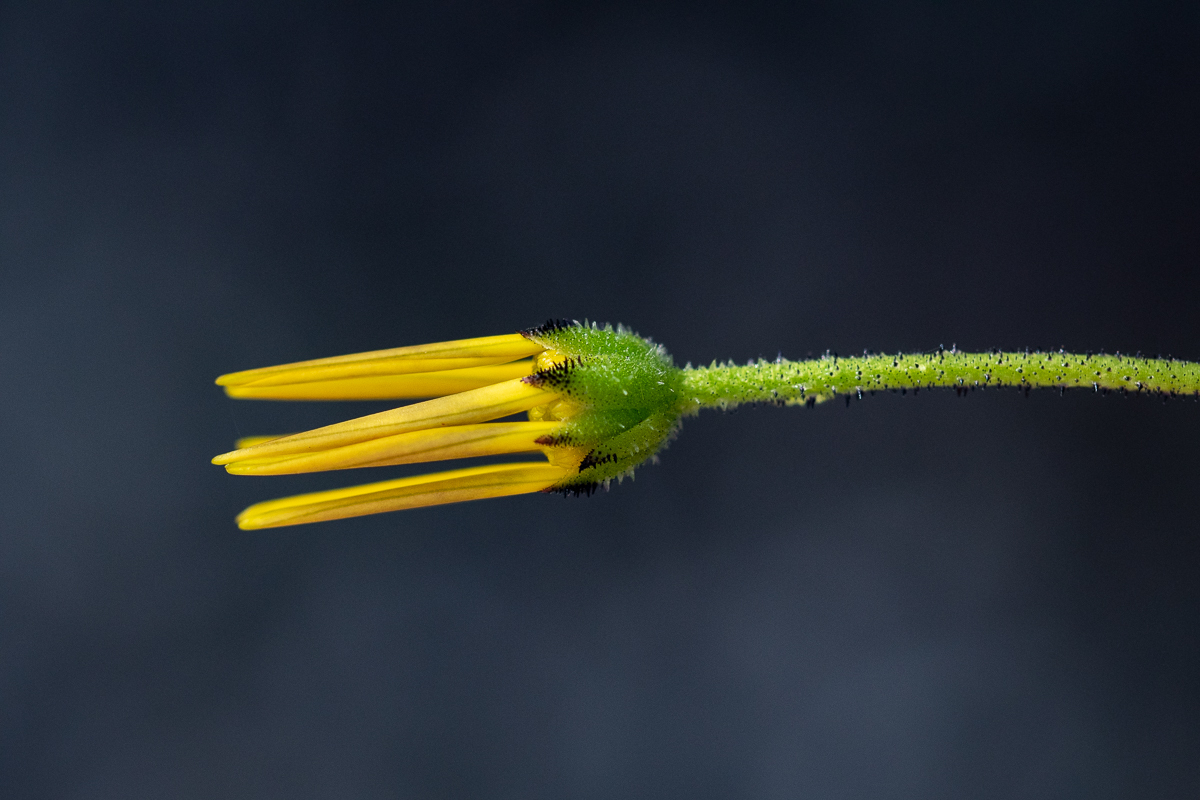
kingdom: Plantae
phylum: Tracheophyta
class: Magnoliopsida
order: Asterales
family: Asteraceae
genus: Osteospermum
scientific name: Osteospermum rotundifolium
